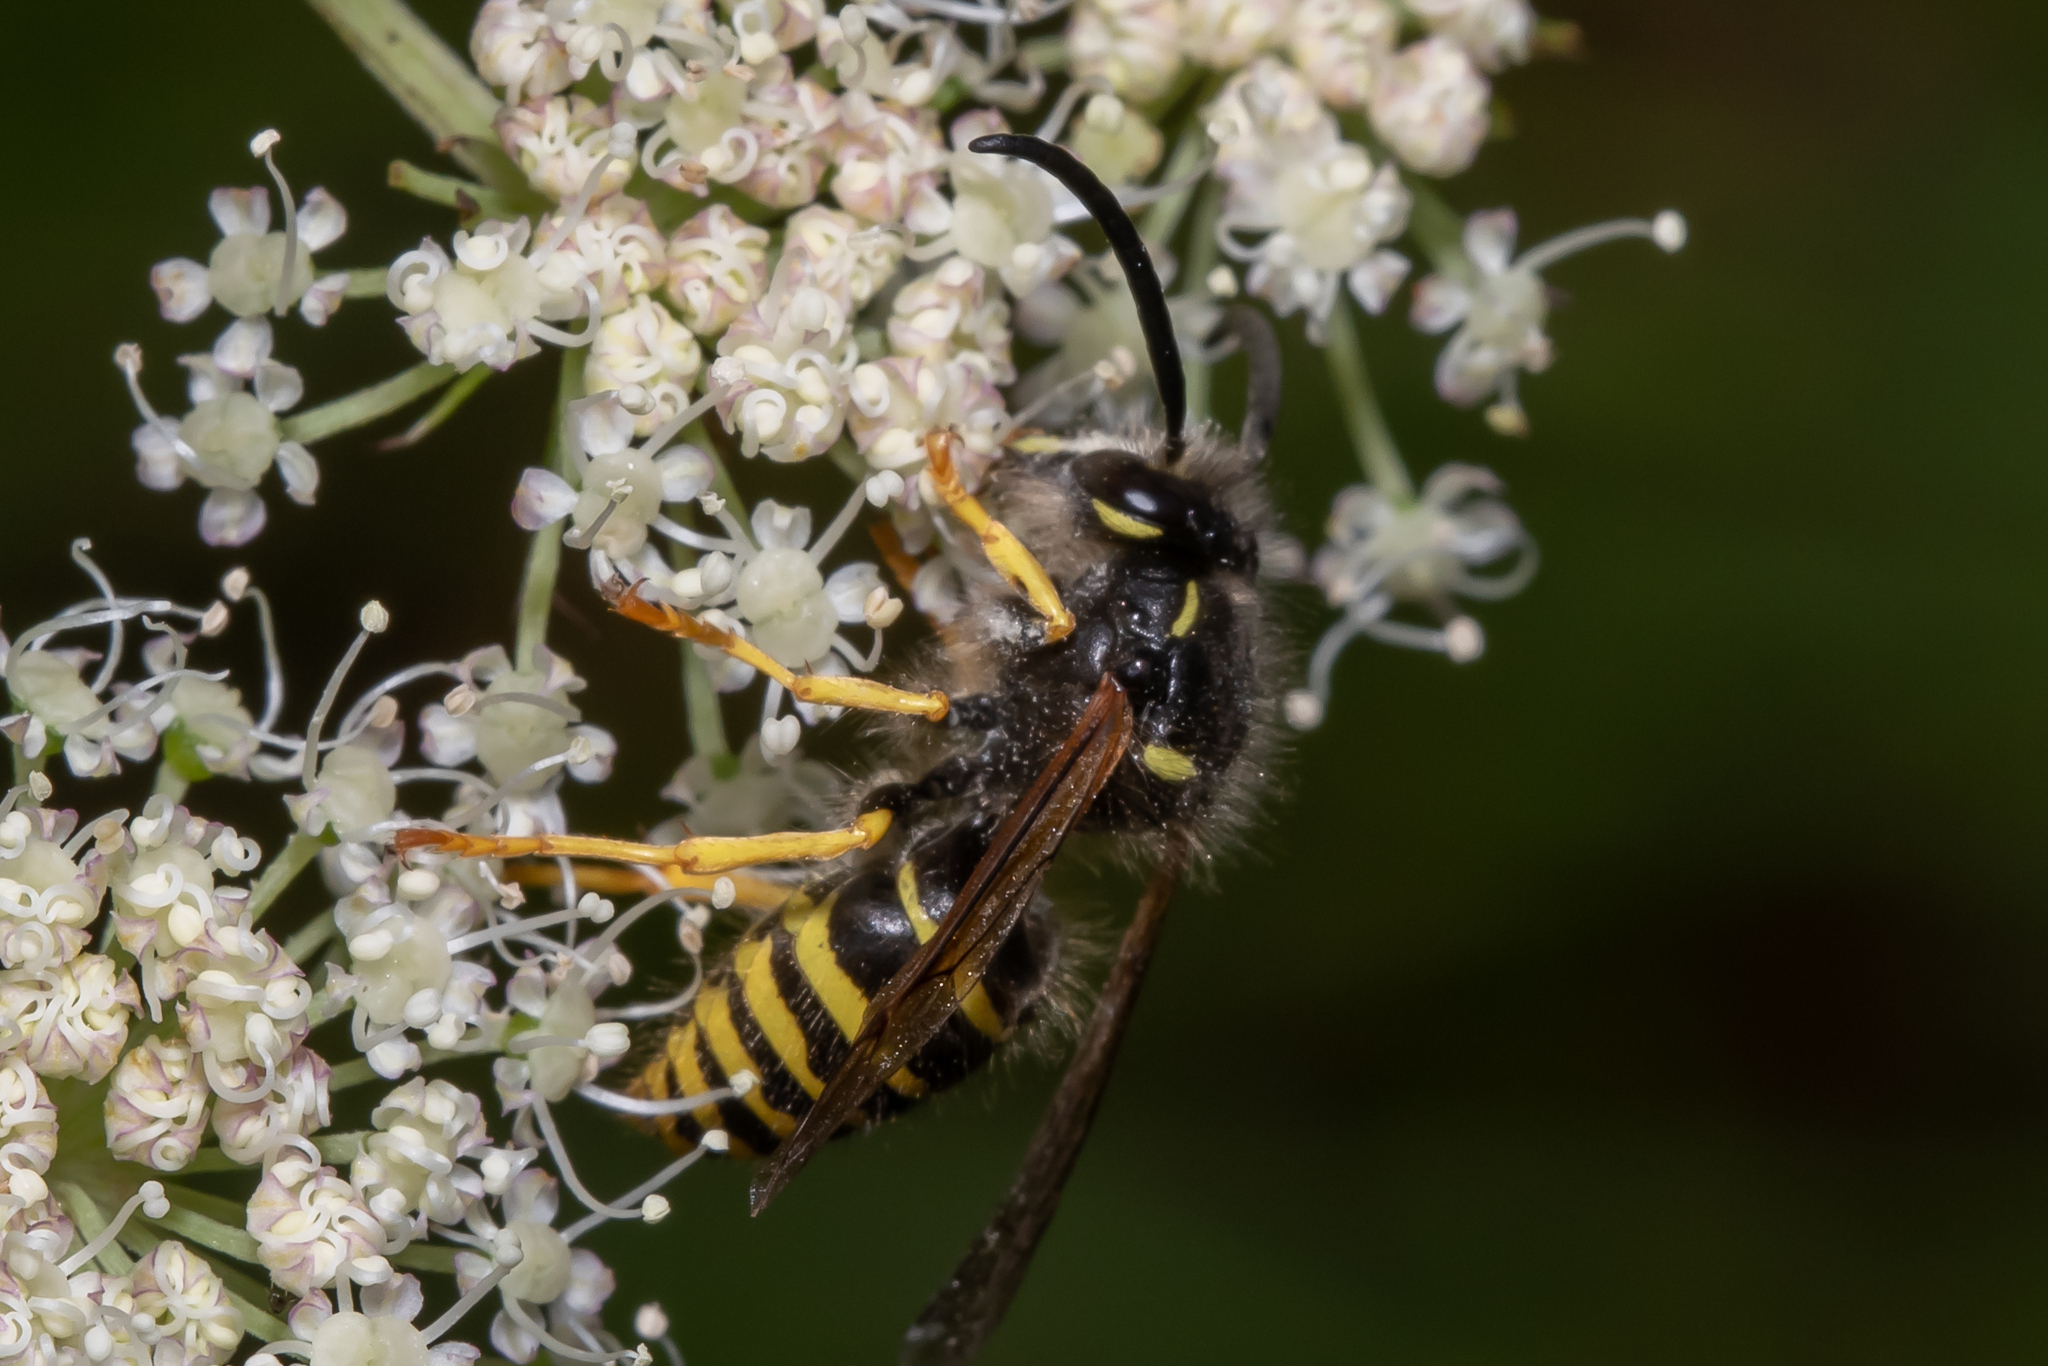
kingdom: Animalia
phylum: Arthropoda
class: Insecta
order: Hymenoptera
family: Vespidae
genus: Dolichovespula
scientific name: Dolichovespula sylvestris
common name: Tree wasp
